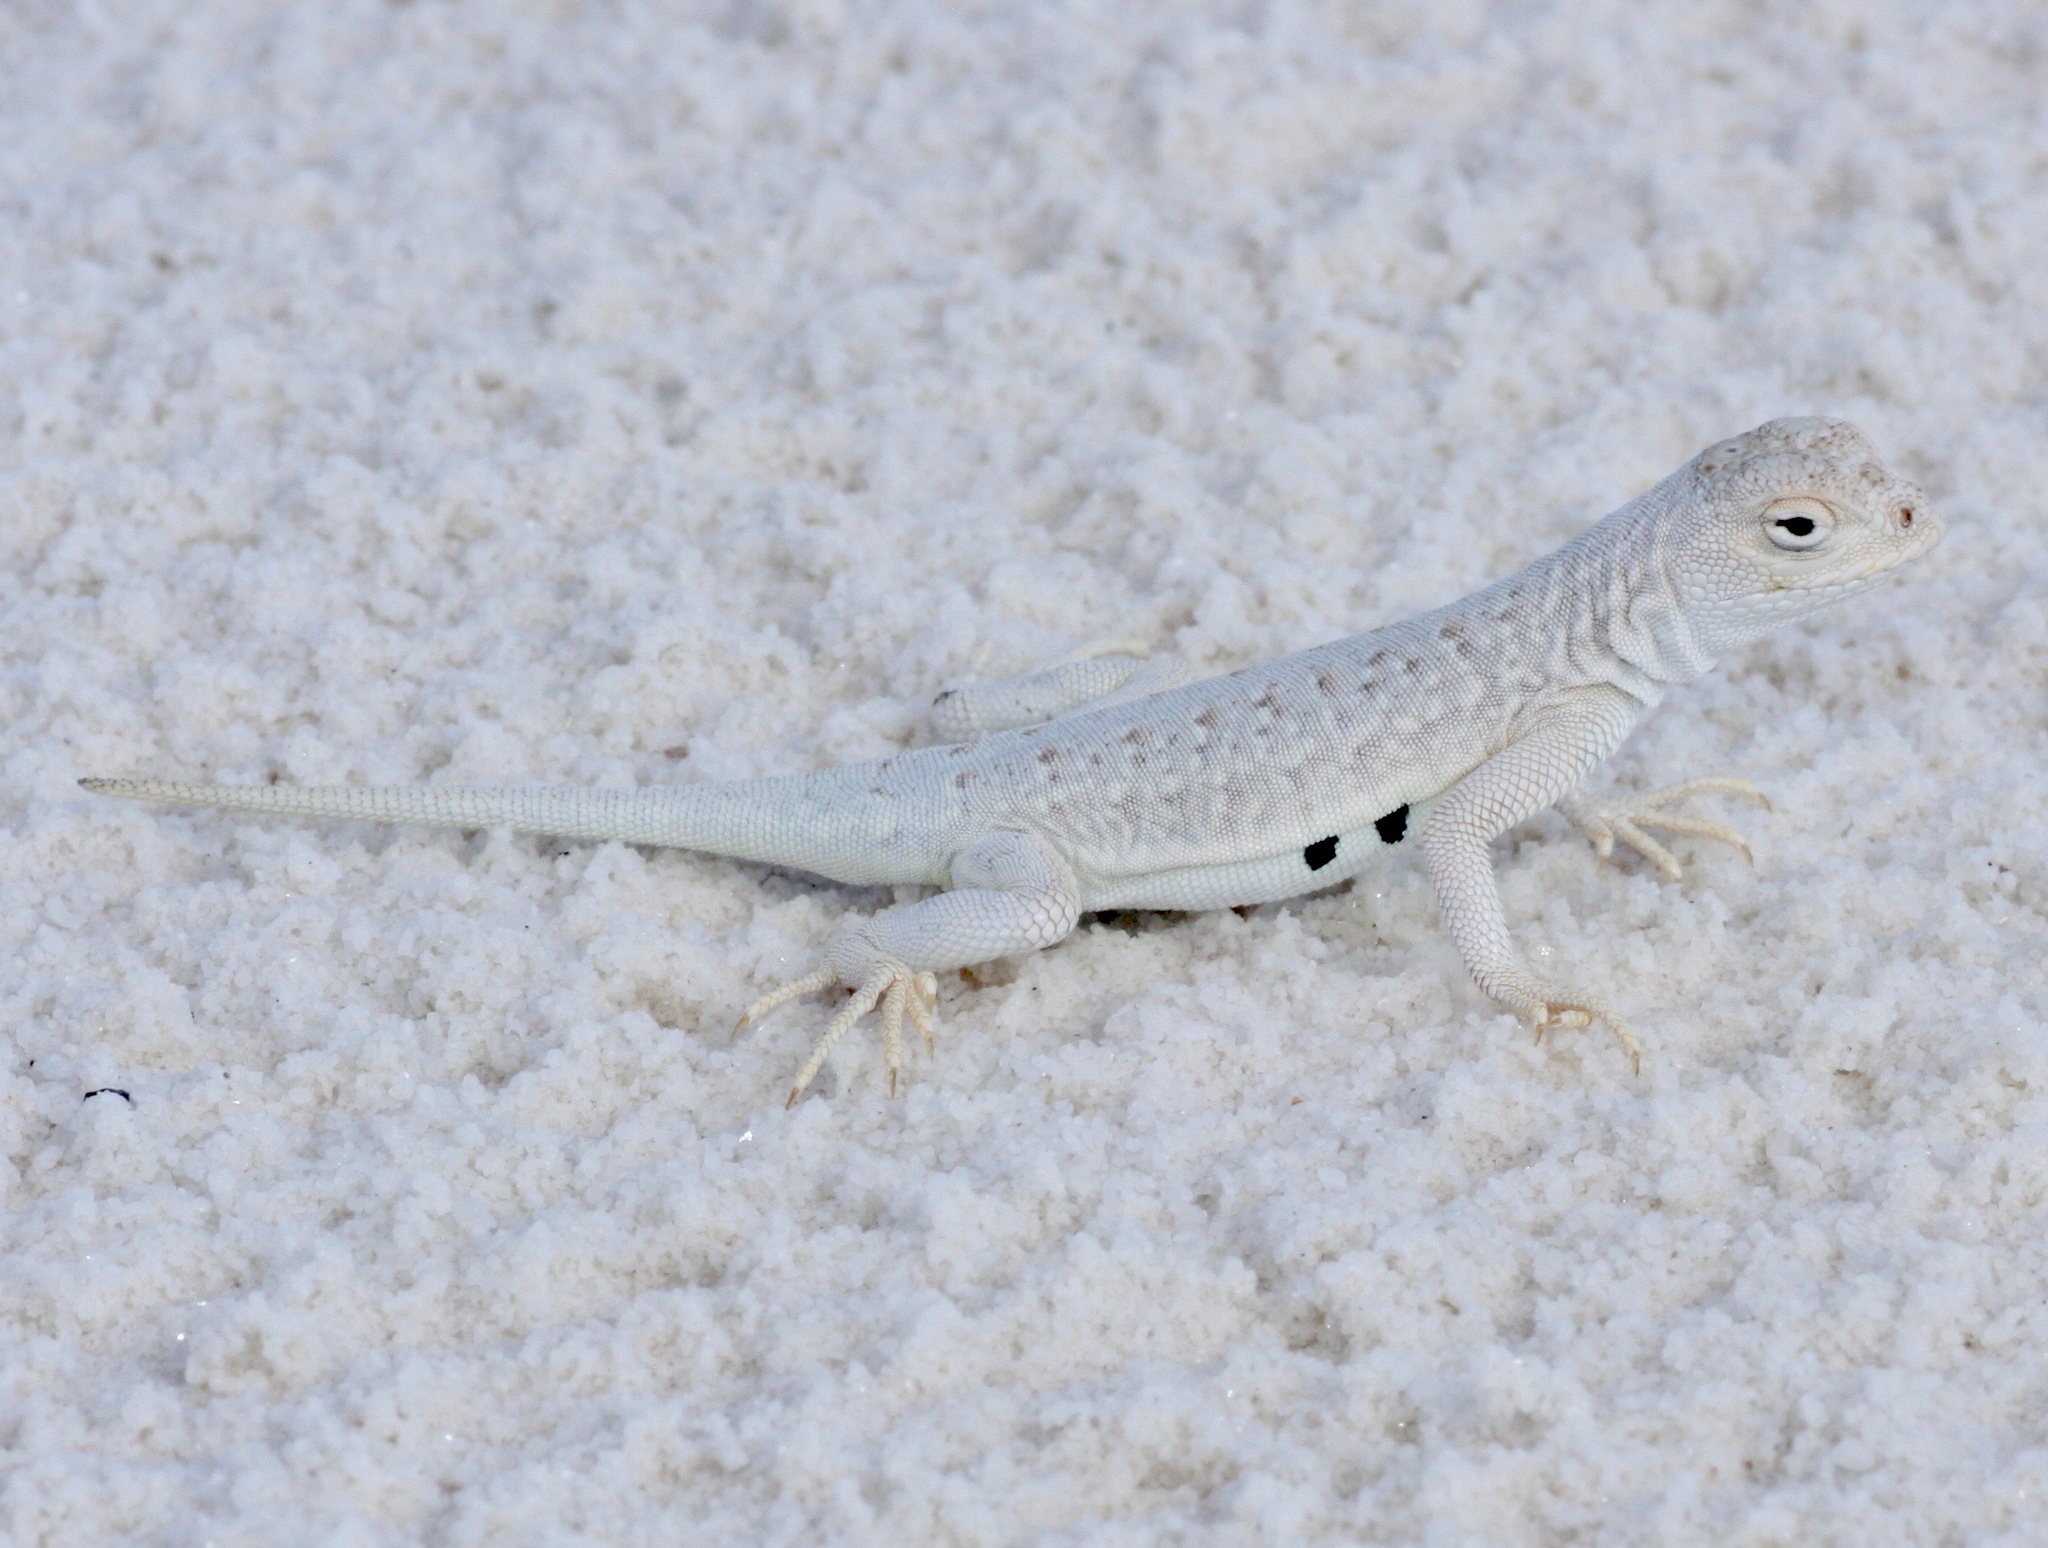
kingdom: Animalia
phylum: Chordata
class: Squamata
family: Phrynosomatidae
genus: Holbrookia
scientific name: Holbrookia maculata
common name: Lesser earless lizard
